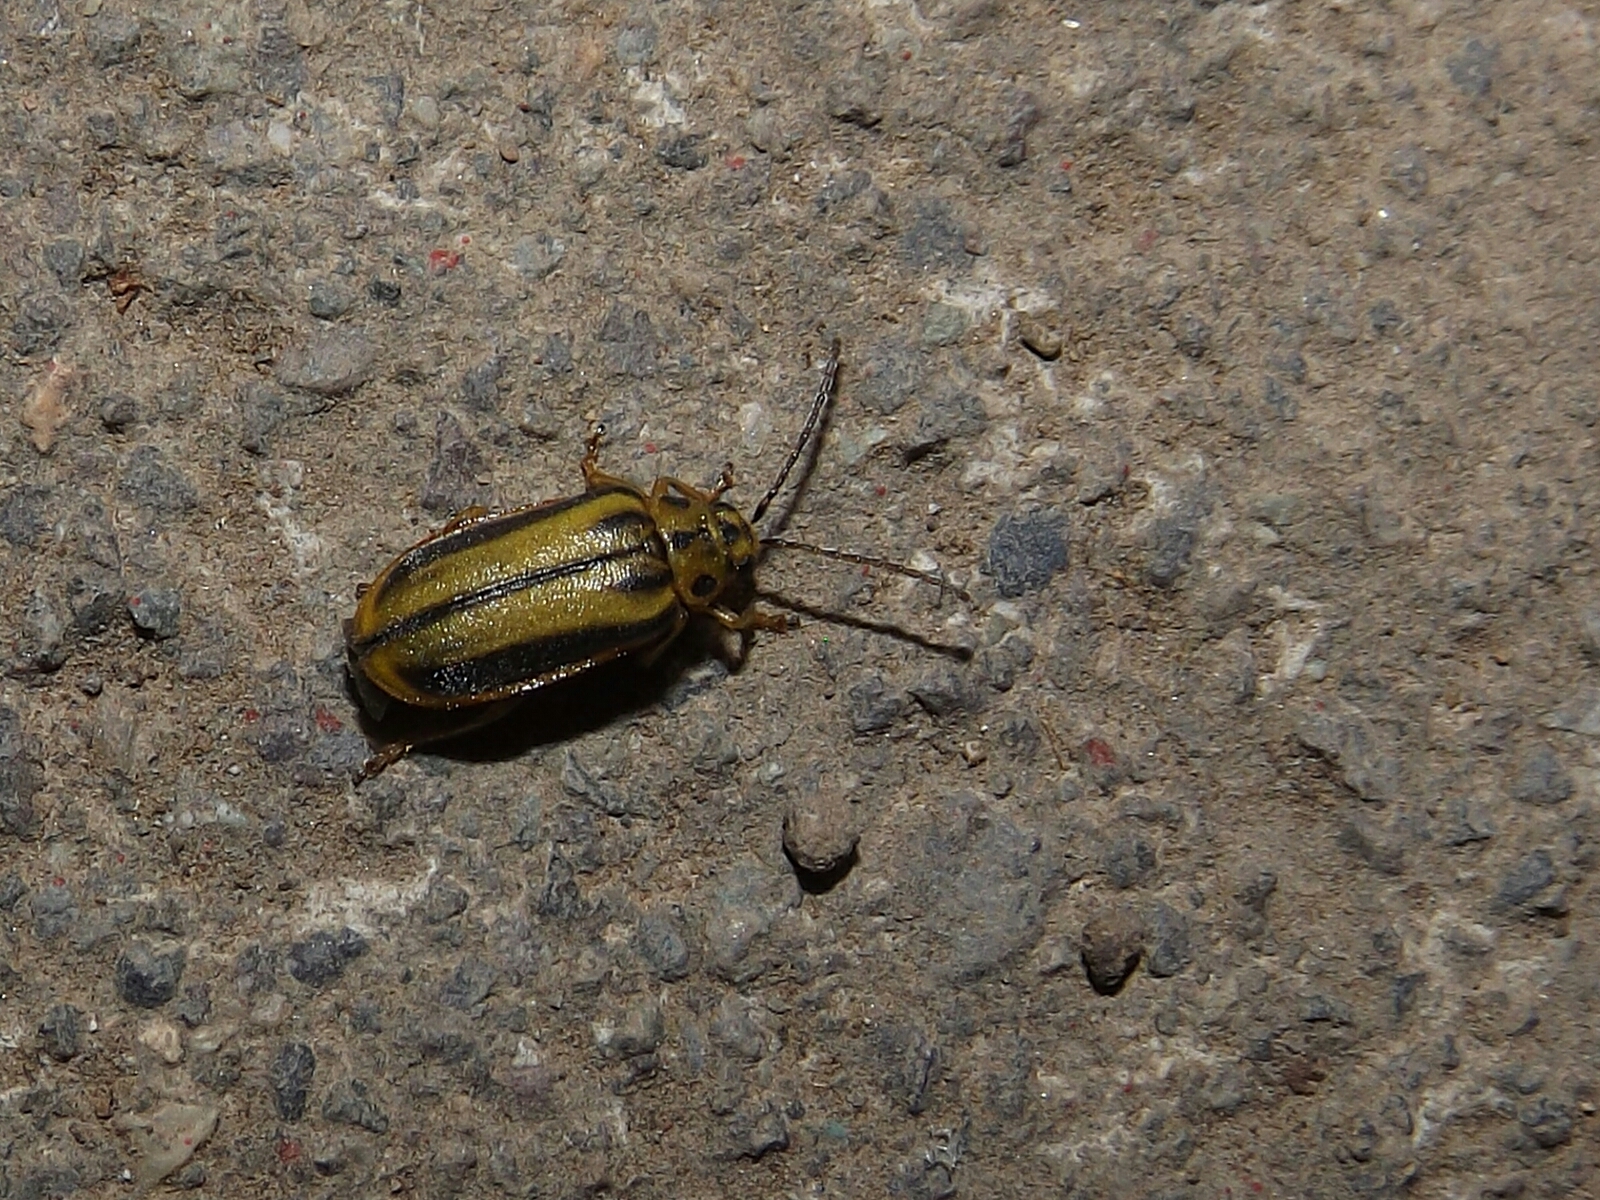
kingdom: Animalia
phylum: Arthropoda
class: Insecta
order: Coleoptera
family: Chrysomelidae
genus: Xanthogaleruca
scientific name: Xanthogaleruca luteola
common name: Elm leaf beetle
